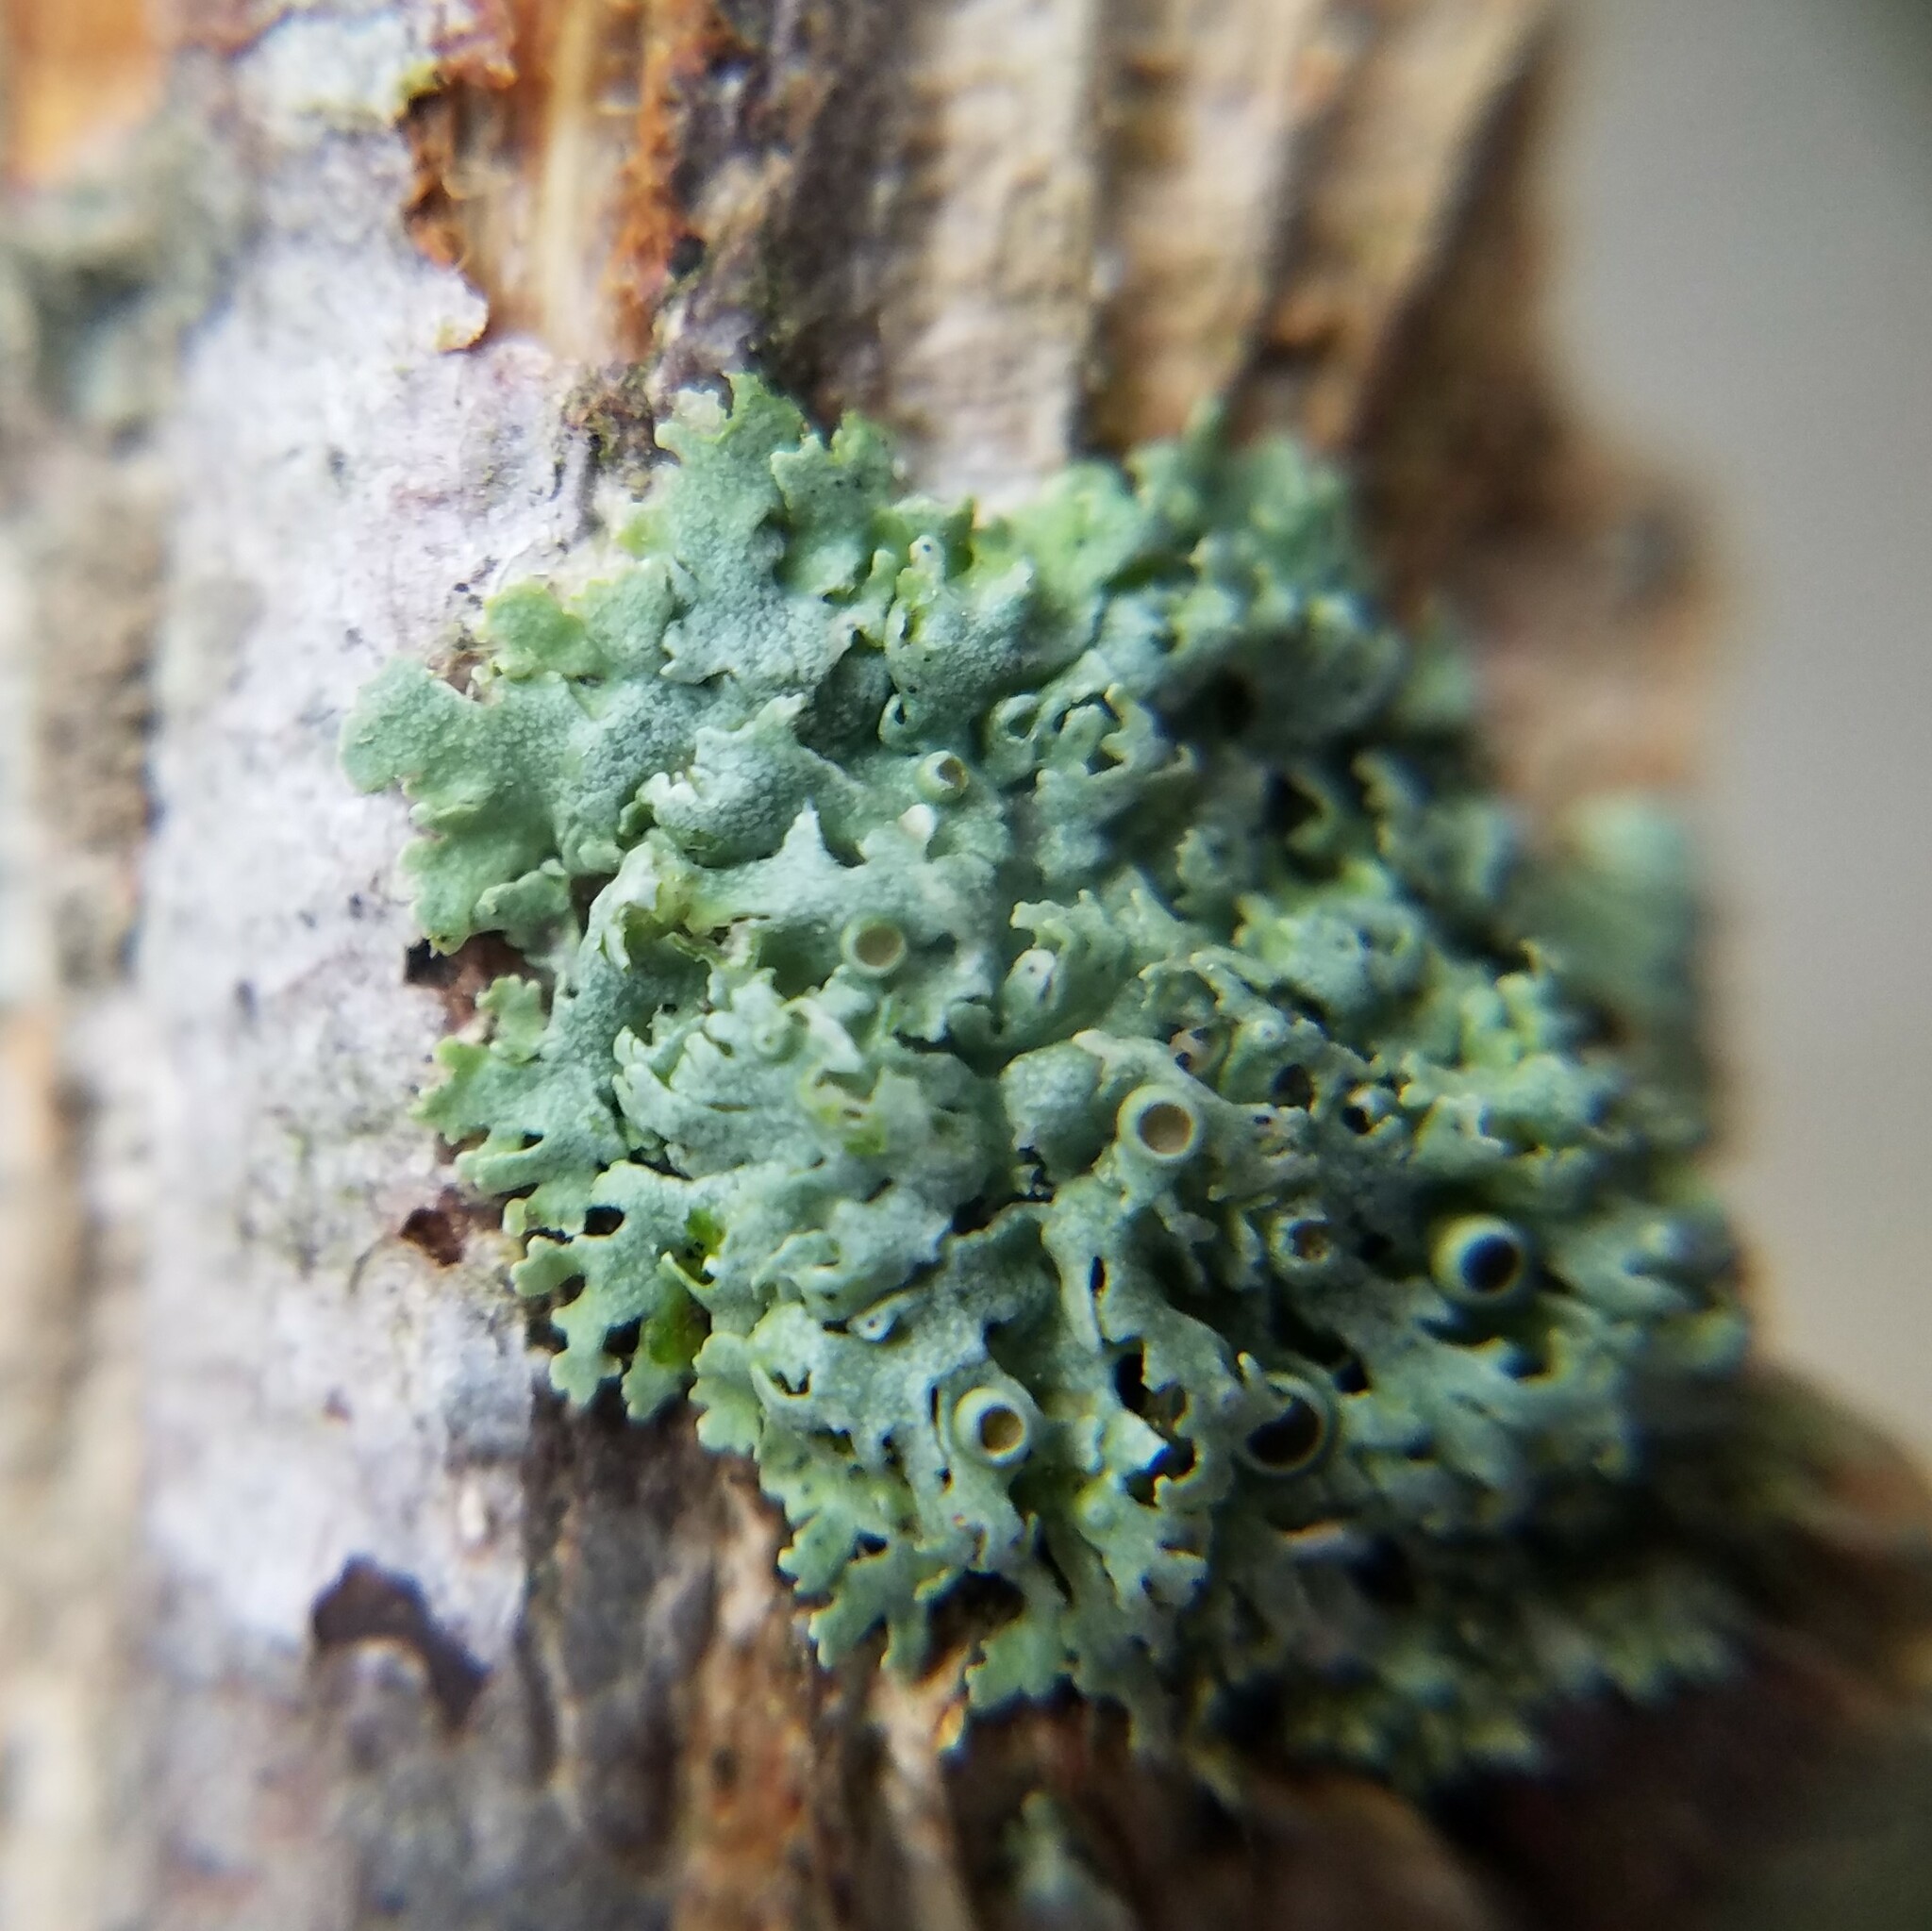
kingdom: Fungi
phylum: Ascomycota
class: Lecanoromycetes
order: Caliciales
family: Physciaceae
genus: Physcia
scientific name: Physcia pumilior
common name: Lesser gray legs
